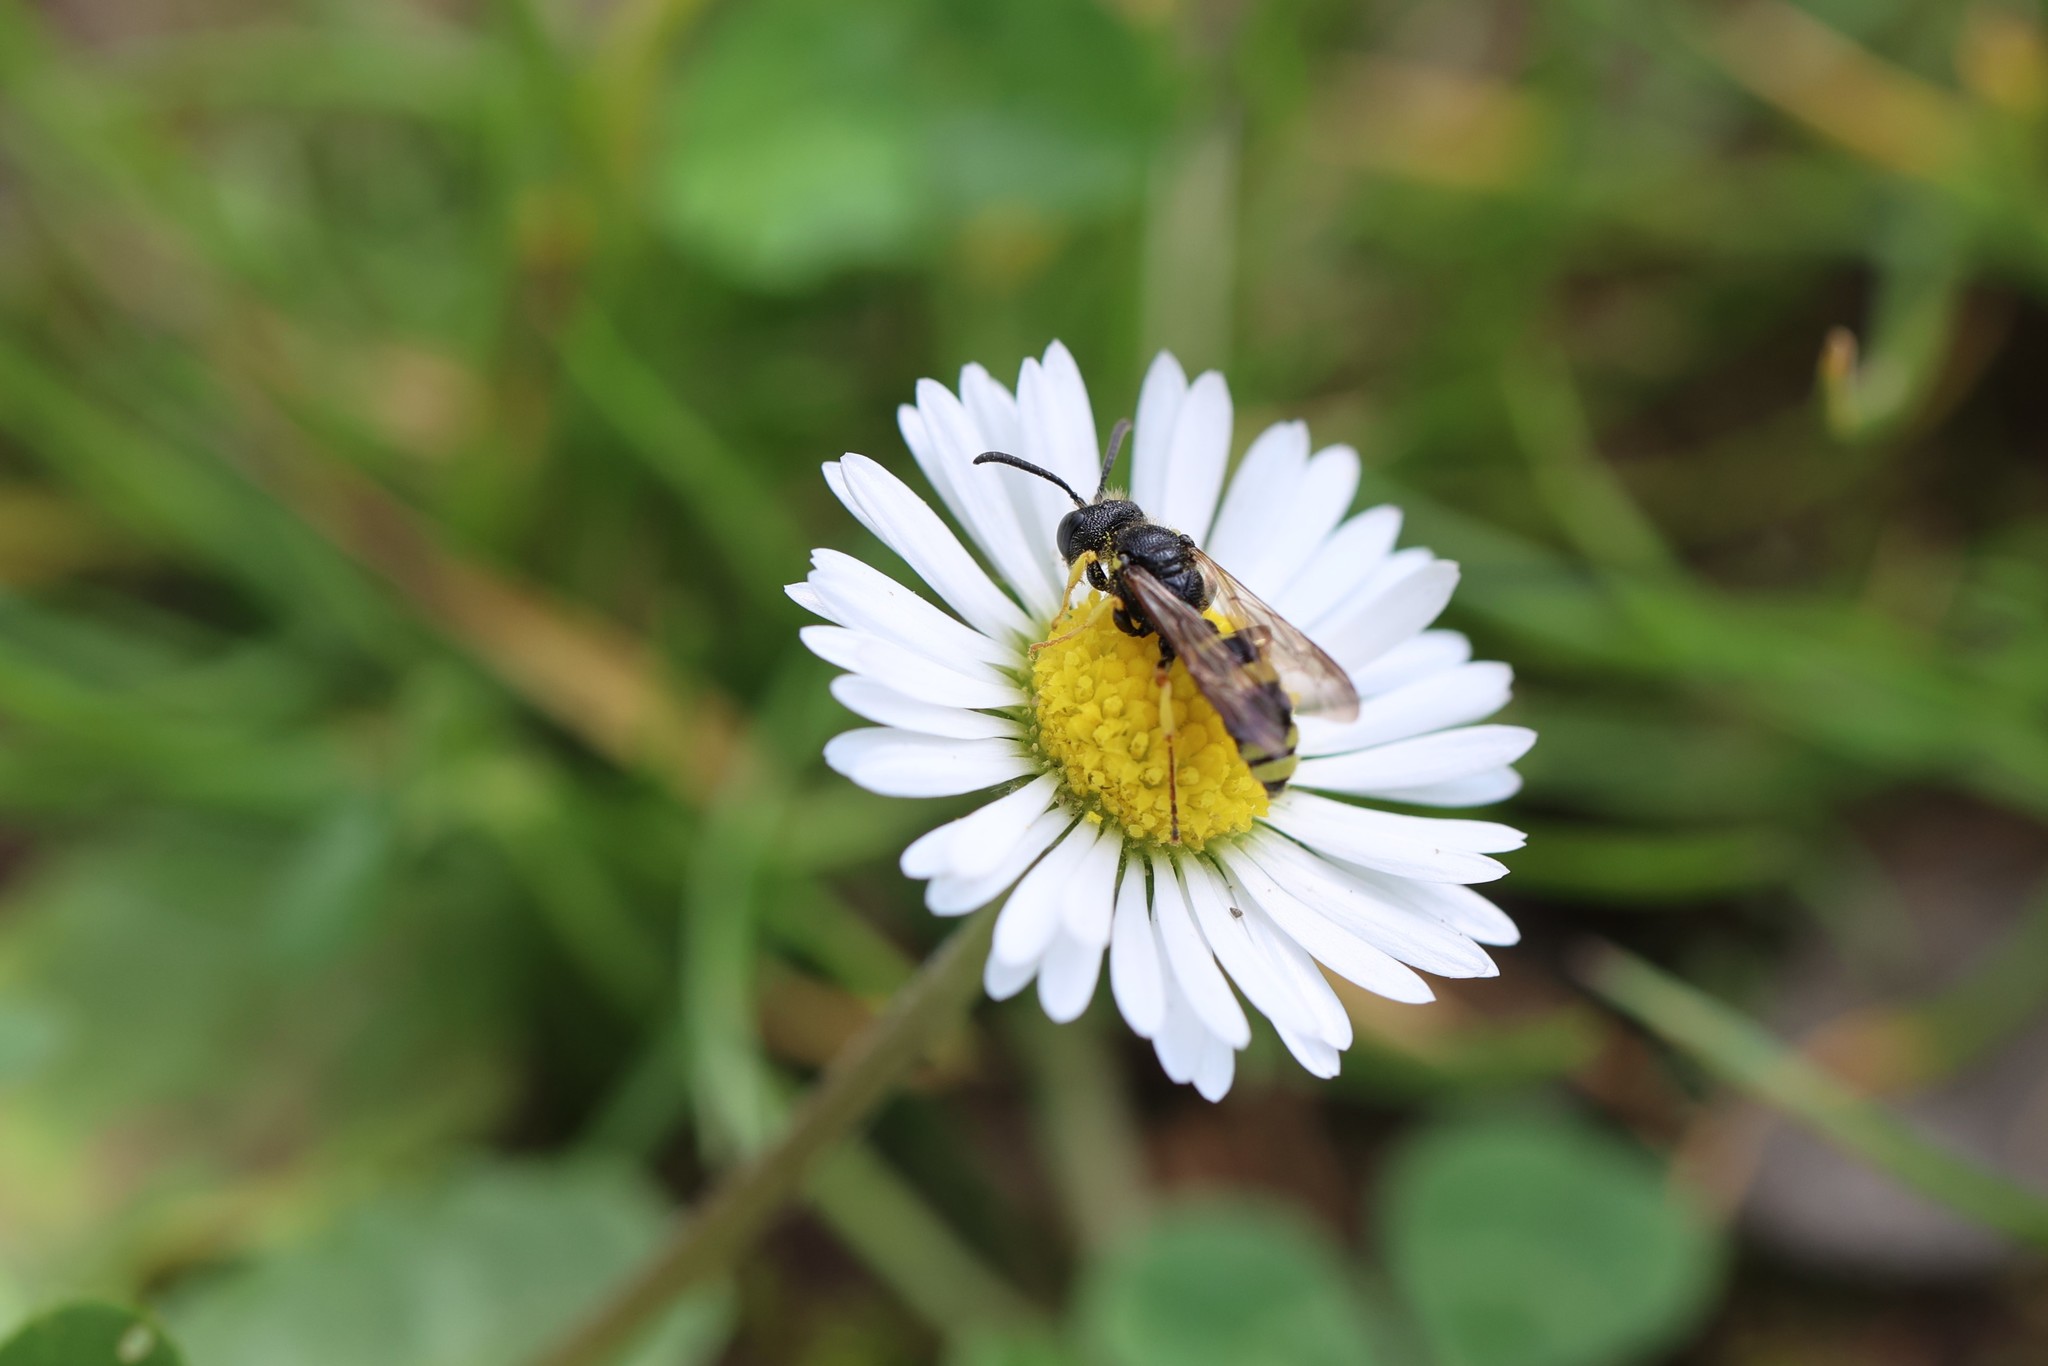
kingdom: Animalia
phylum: Arthropoda
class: Insecta
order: Hymenoptera
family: Crabronidae
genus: Cerceris
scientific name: Cerceris rybyensis
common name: Ornate tailed digger wasp
